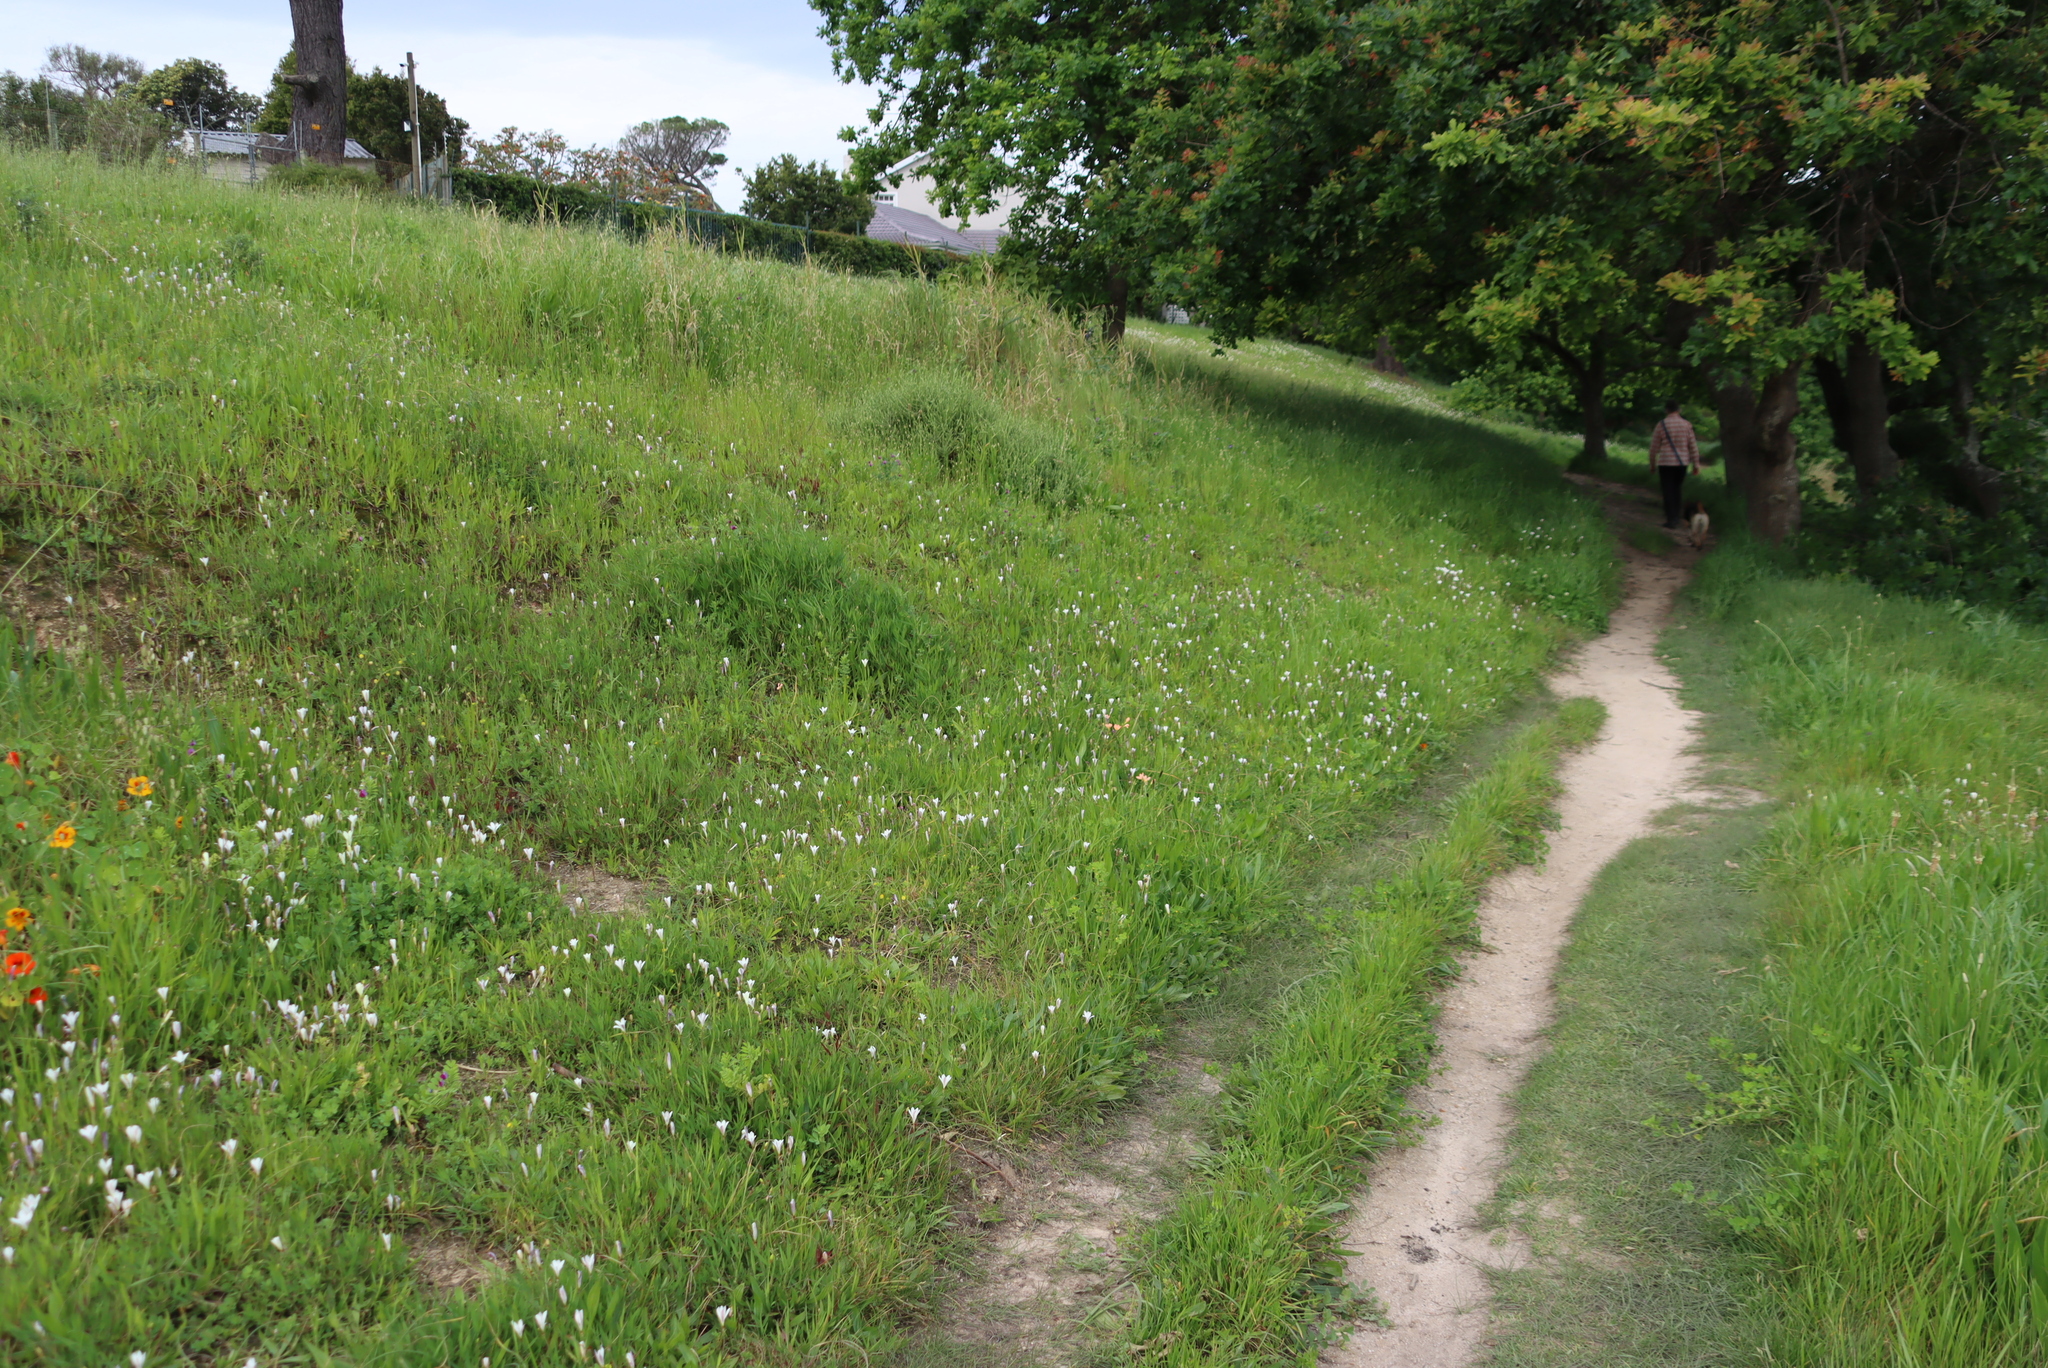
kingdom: Plantae
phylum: Tracheophyta
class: Liliopsida
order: Asparagales
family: Iridaceae
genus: Sparaxis
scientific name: Sparaxis bulbifera
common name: Harlequin-flower
